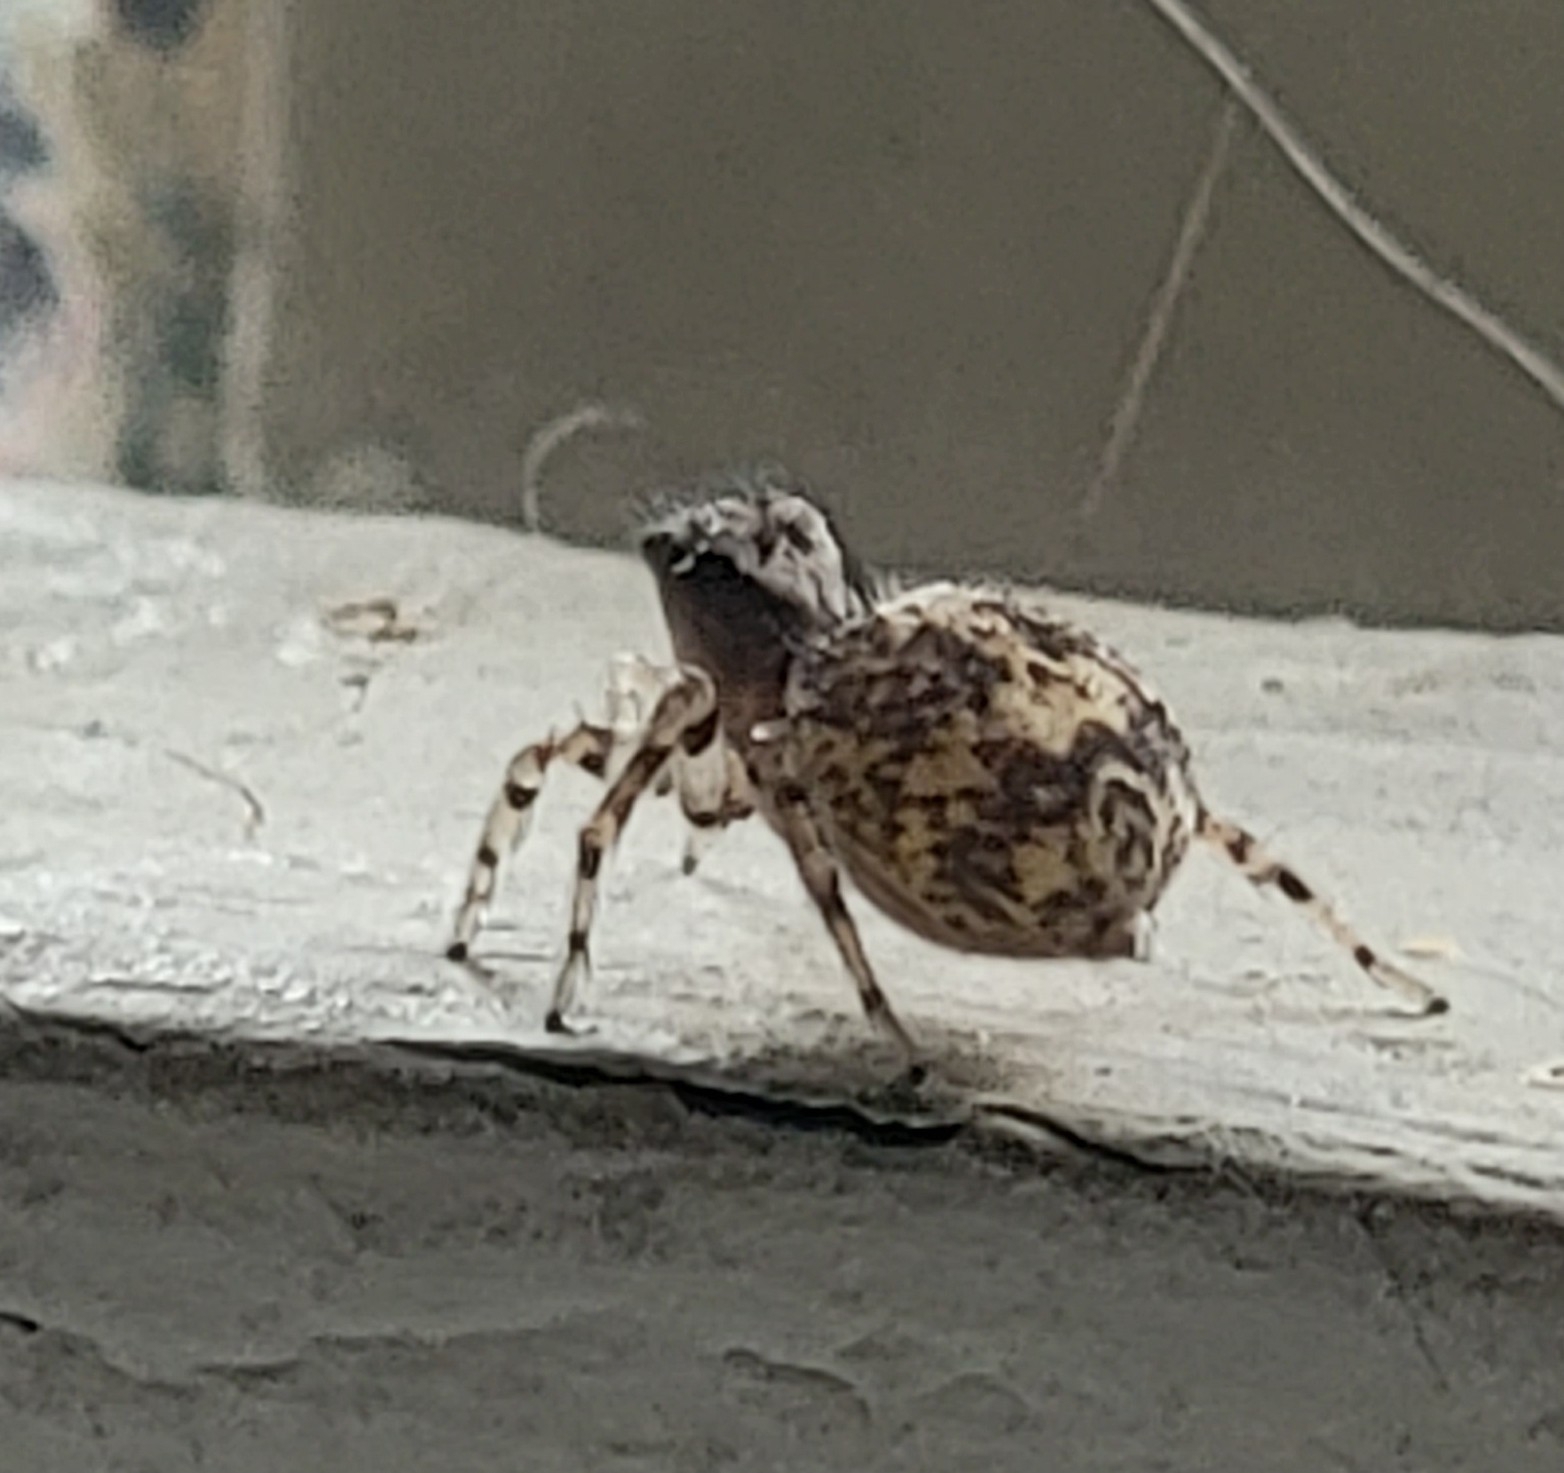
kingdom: Animalia
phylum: Arthropoda
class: Arachnida
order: Araneae
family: Salticidae
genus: Naphrys
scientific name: Naphrys pulex
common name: Flea jumping spider
